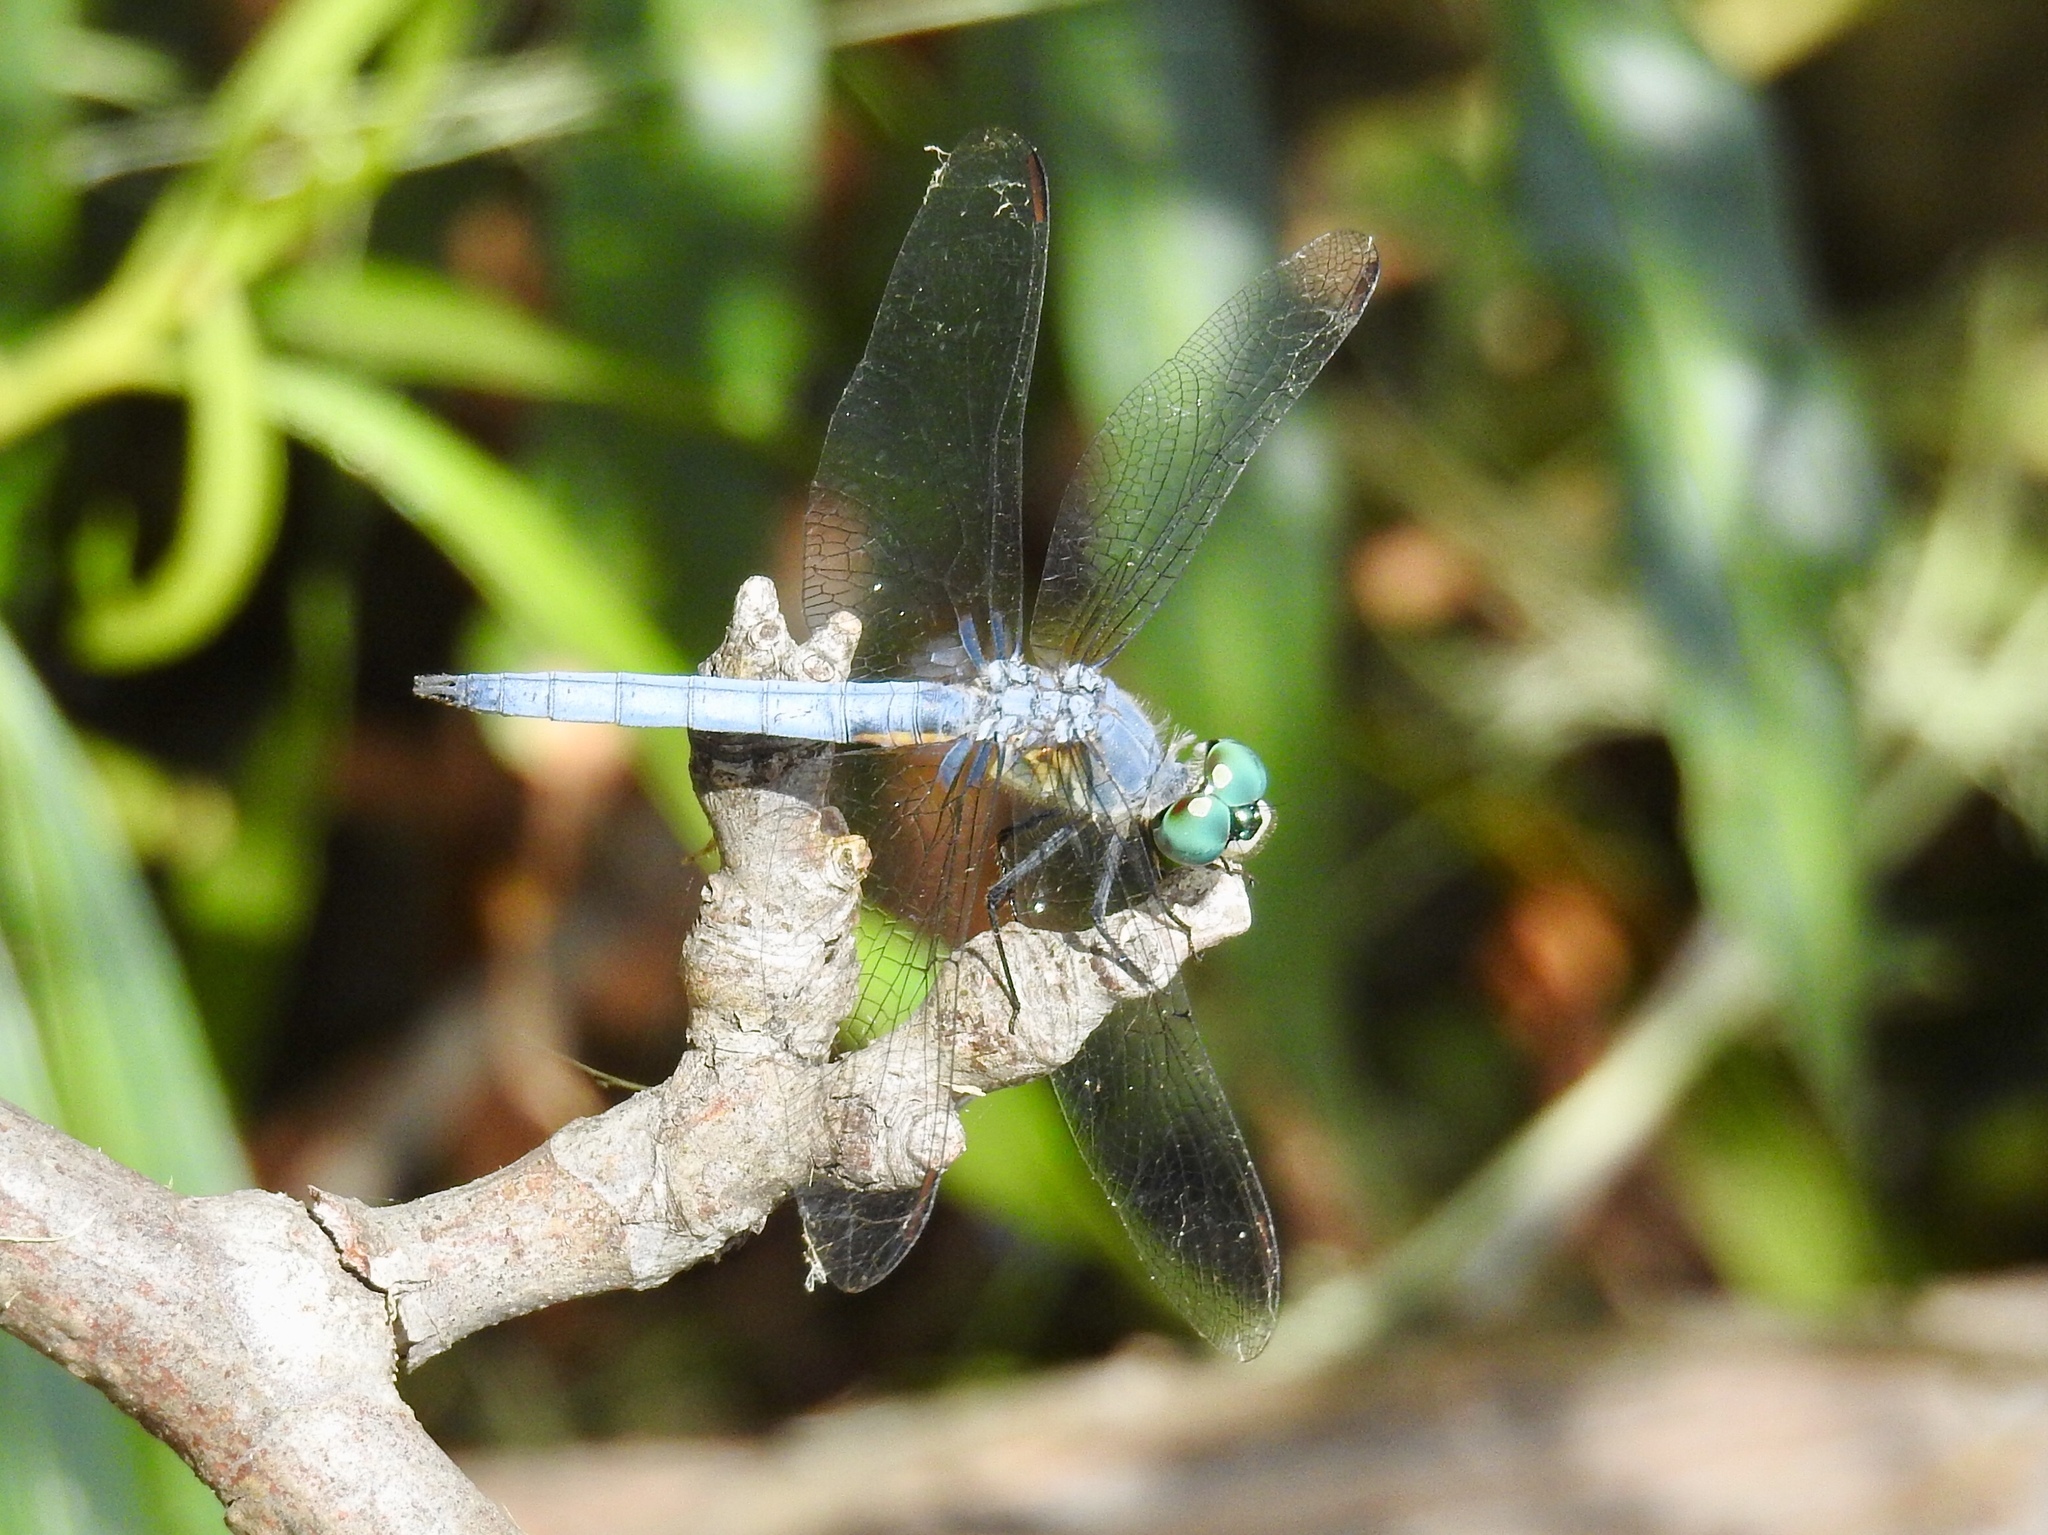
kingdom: Animalia
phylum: Arthropoda
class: Insecta
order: Odonata
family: Libellulidae
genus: Pachydiplax
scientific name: Pachydiplax longipennis
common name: Blue dasher
